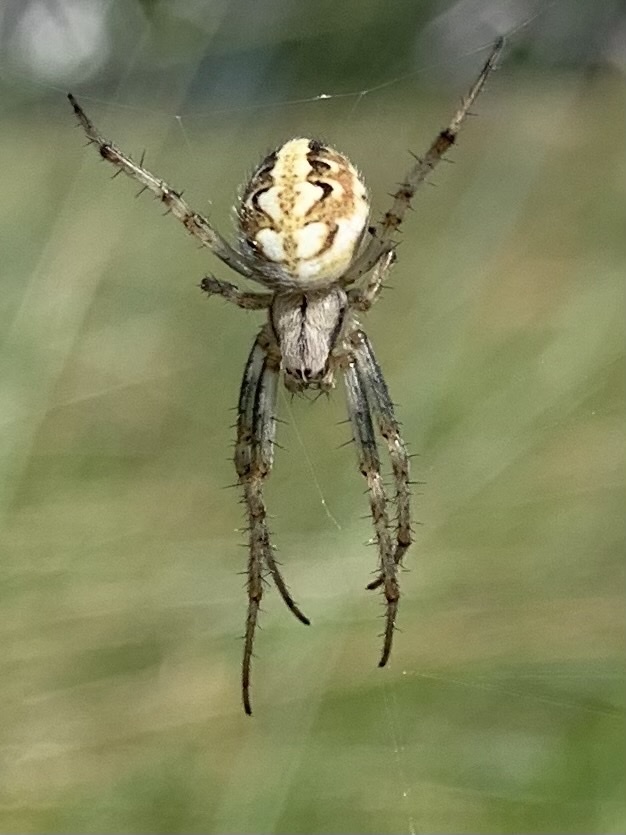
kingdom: Animalia
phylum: Arthropoda
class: Arachnida
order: Araneae
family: Araneidae
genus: Neoscona
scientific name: Neoscona adianta
